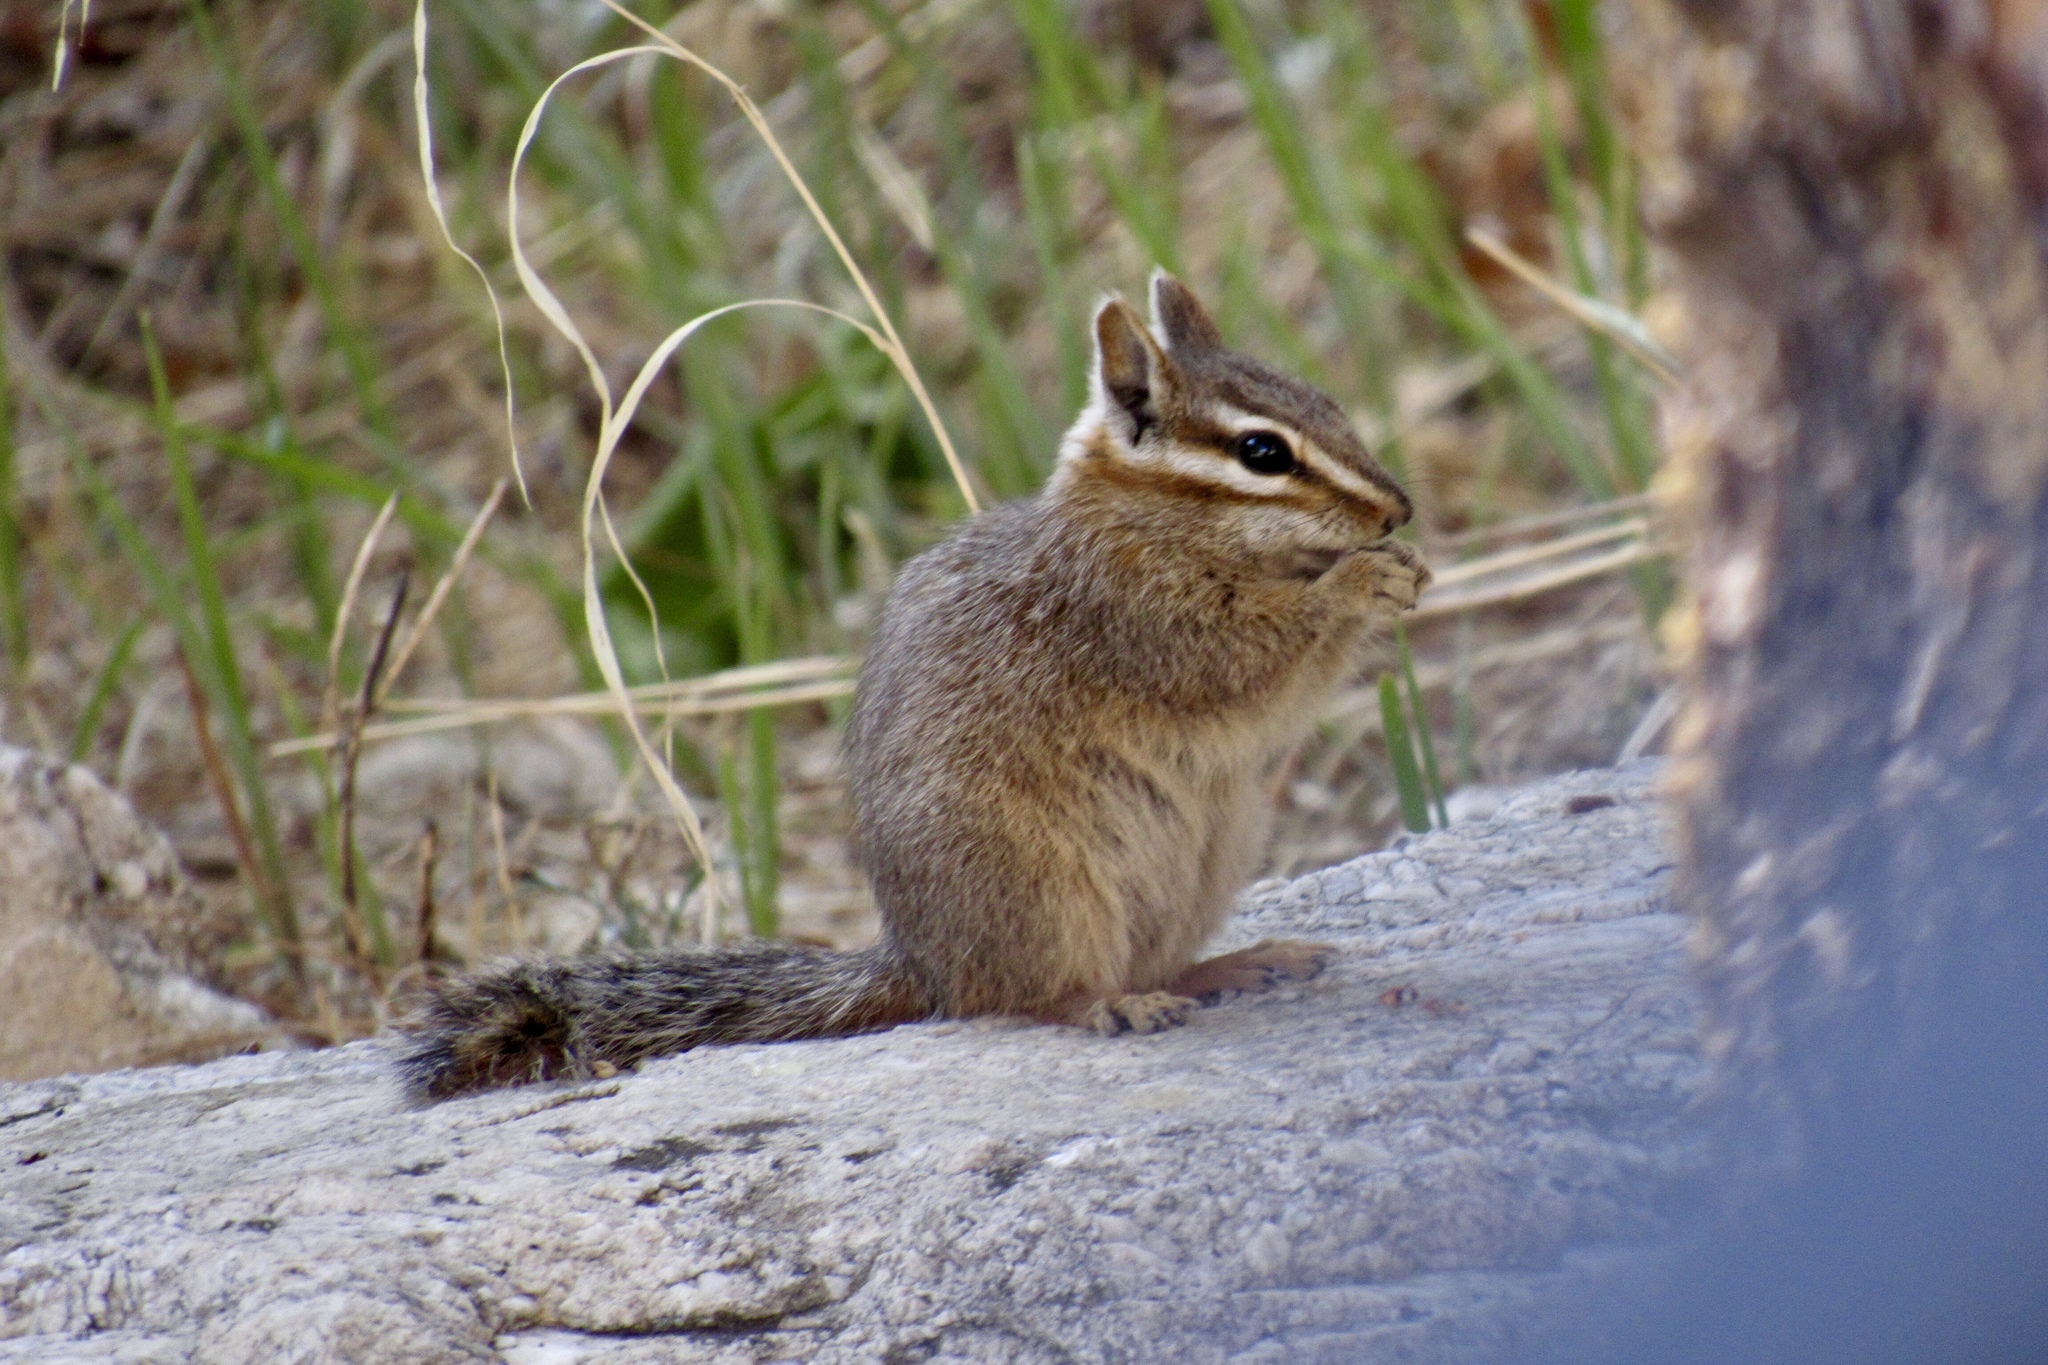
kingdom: Animalia
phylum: Chordata
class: Mammalia
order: Rodentia
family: Sciuridae
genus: Tamias
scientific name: Tamias dorsalis
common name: Cliff chipmunk
